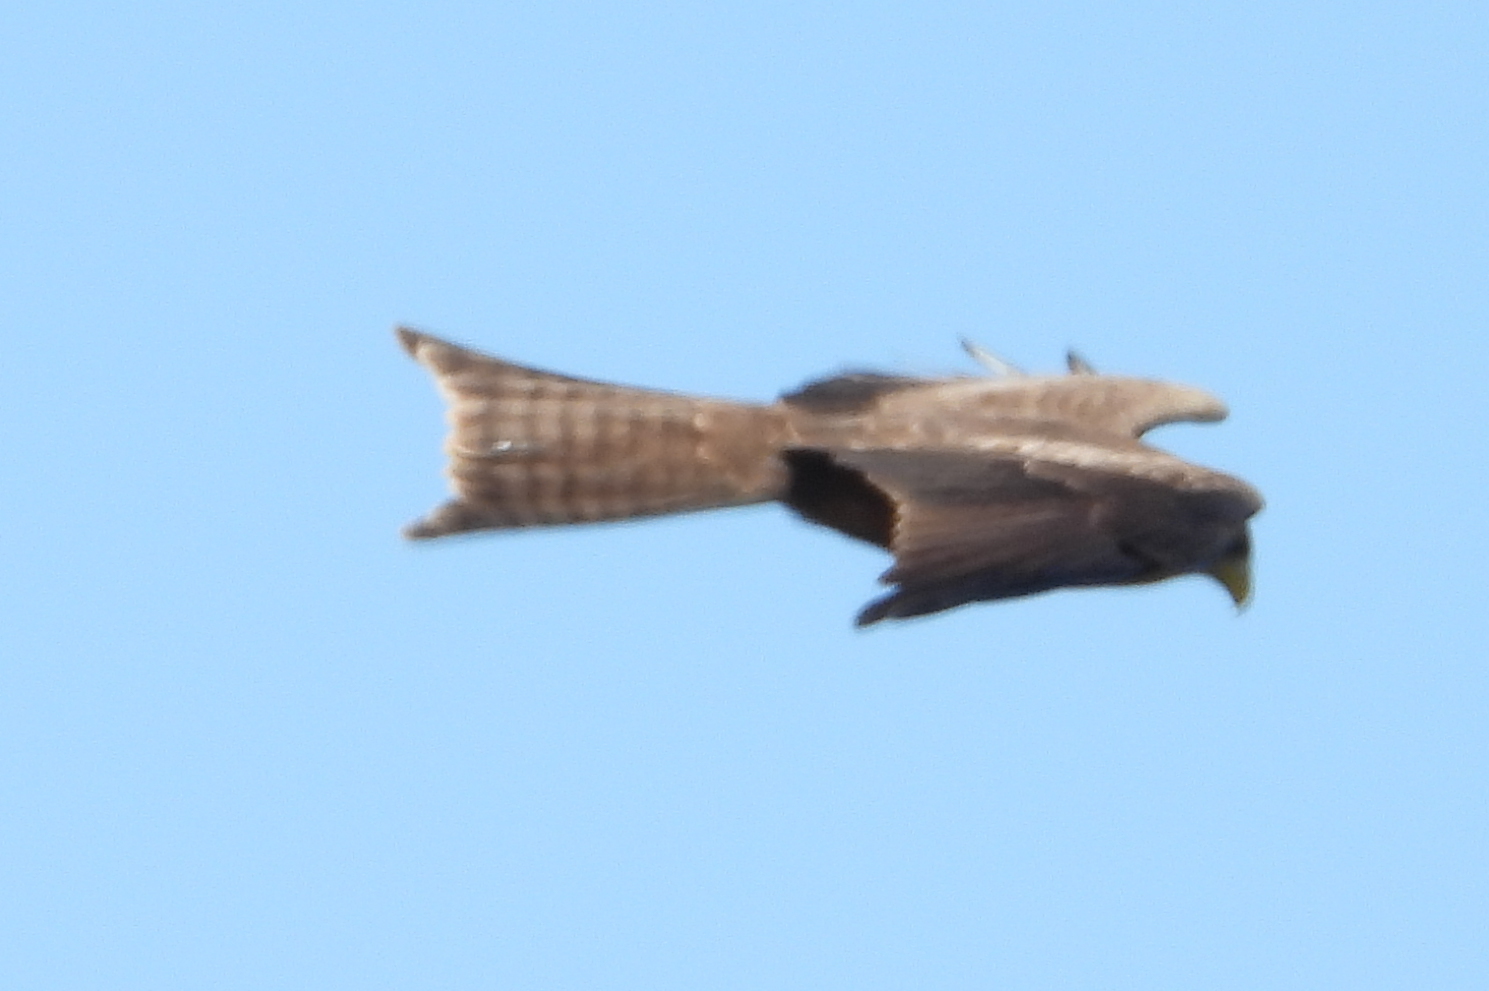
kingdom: Animalia
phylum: Chordata
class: Aves
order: Accipitriformes
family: Accipitridae
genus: Milvus
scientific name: Milvus migrans
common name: Black kite
